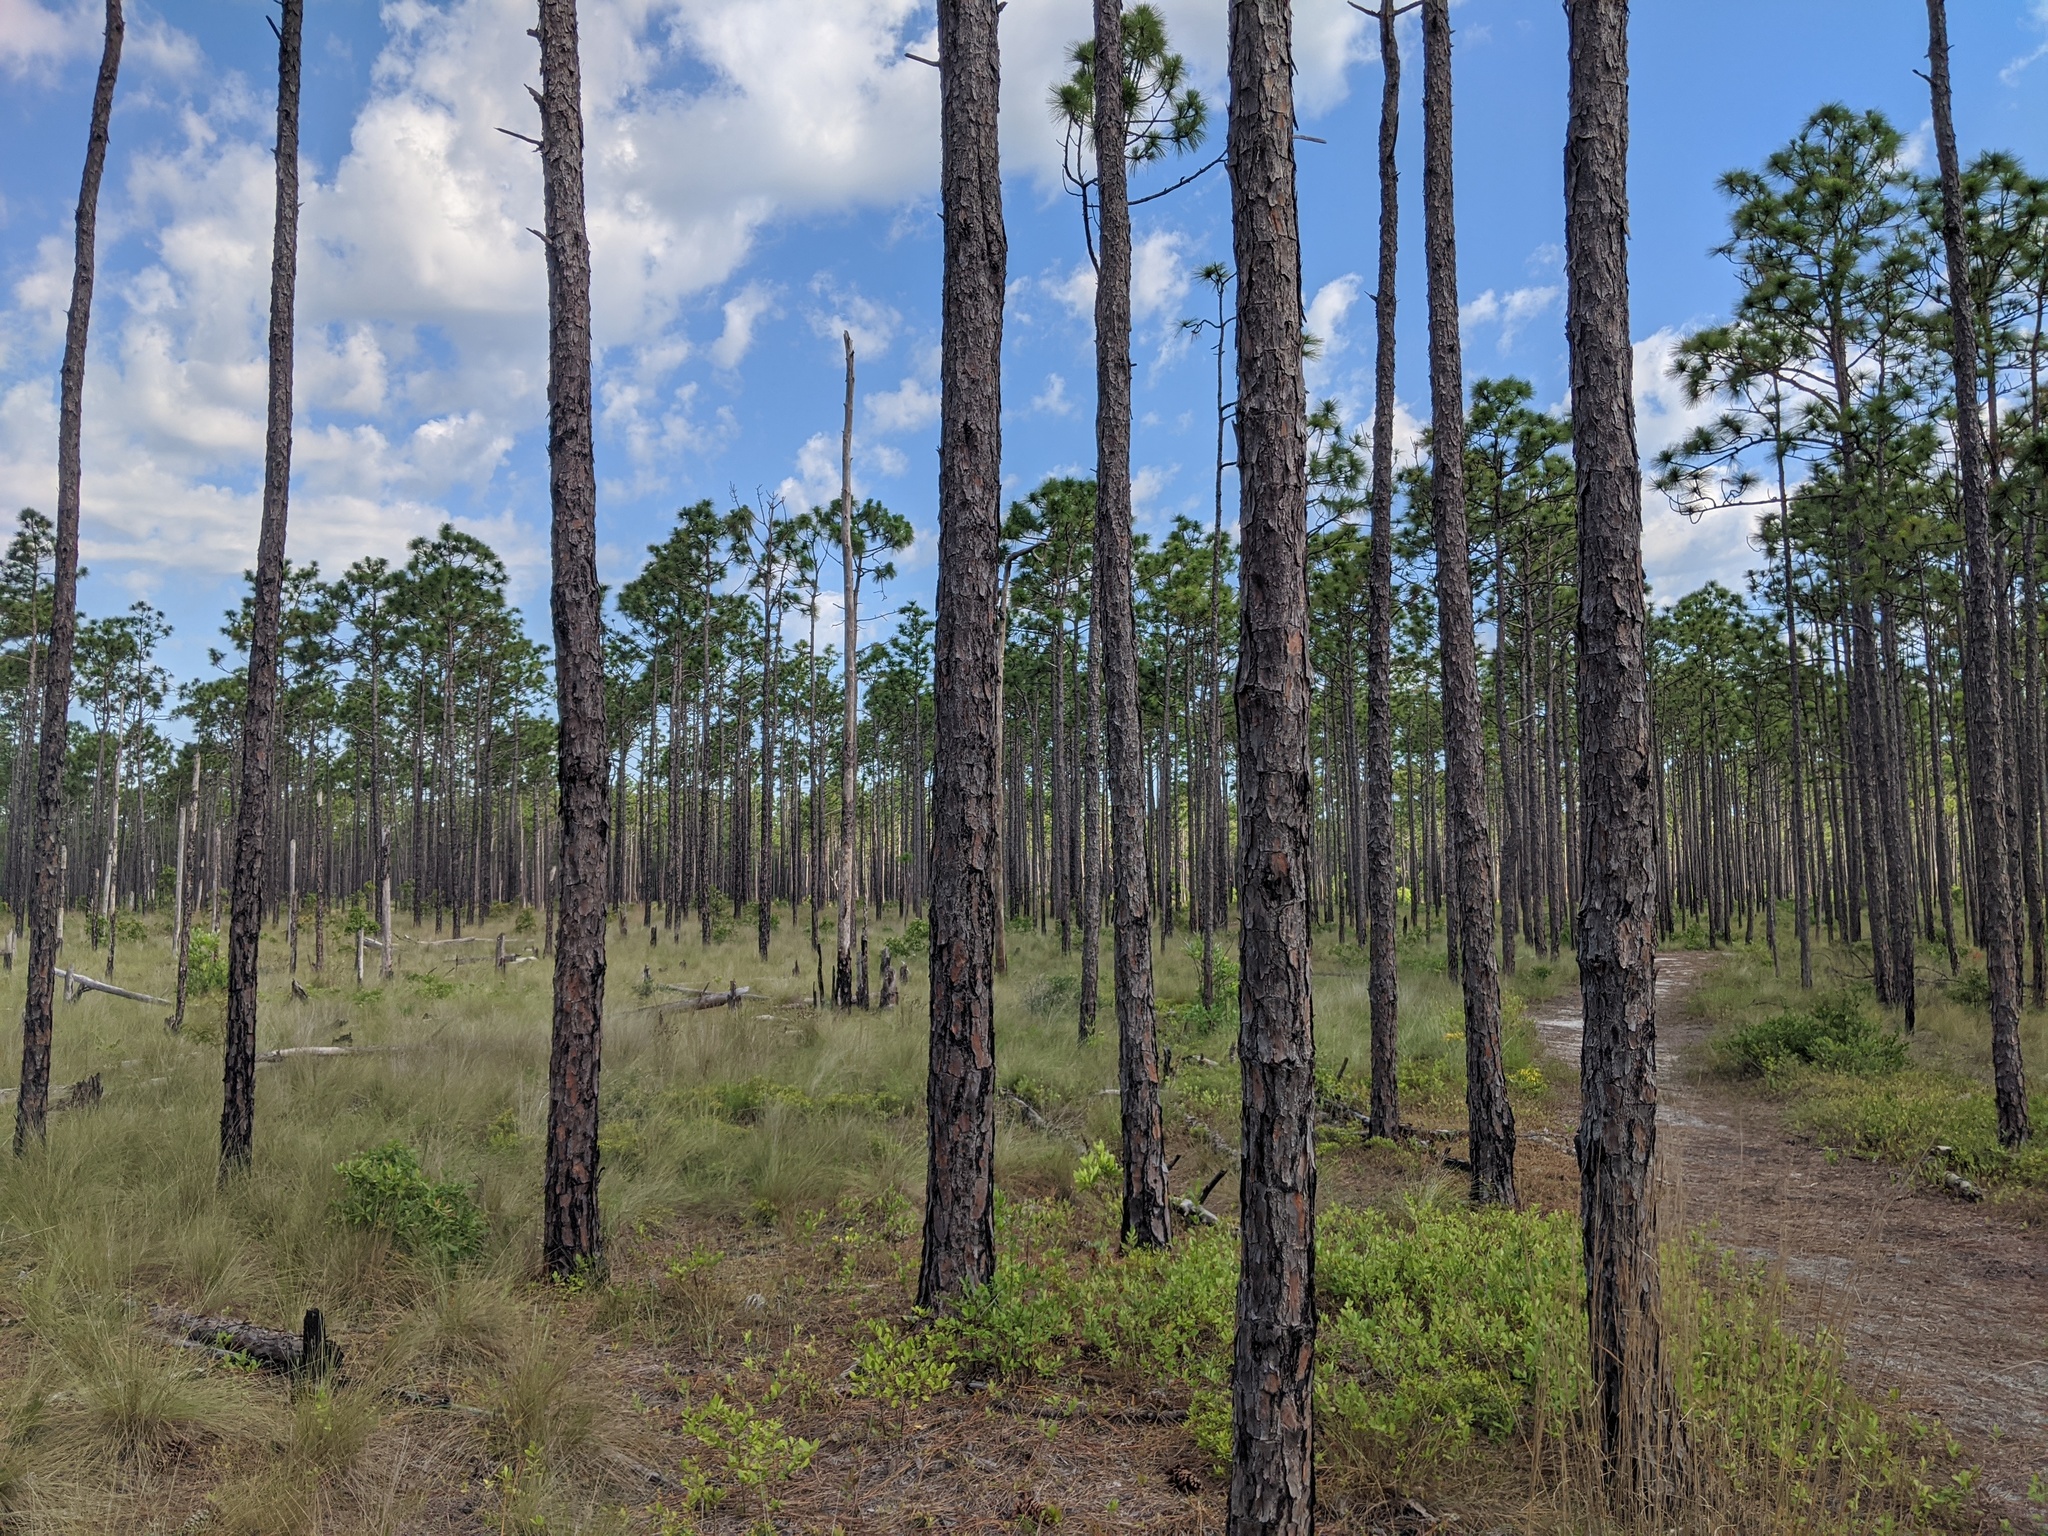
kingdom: Plantae
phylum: Tracheophyta
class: Pinopsida
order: Pinales
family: Pinaceae
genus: Pinus
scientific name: Pinus palustris
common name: Longleaf pine
